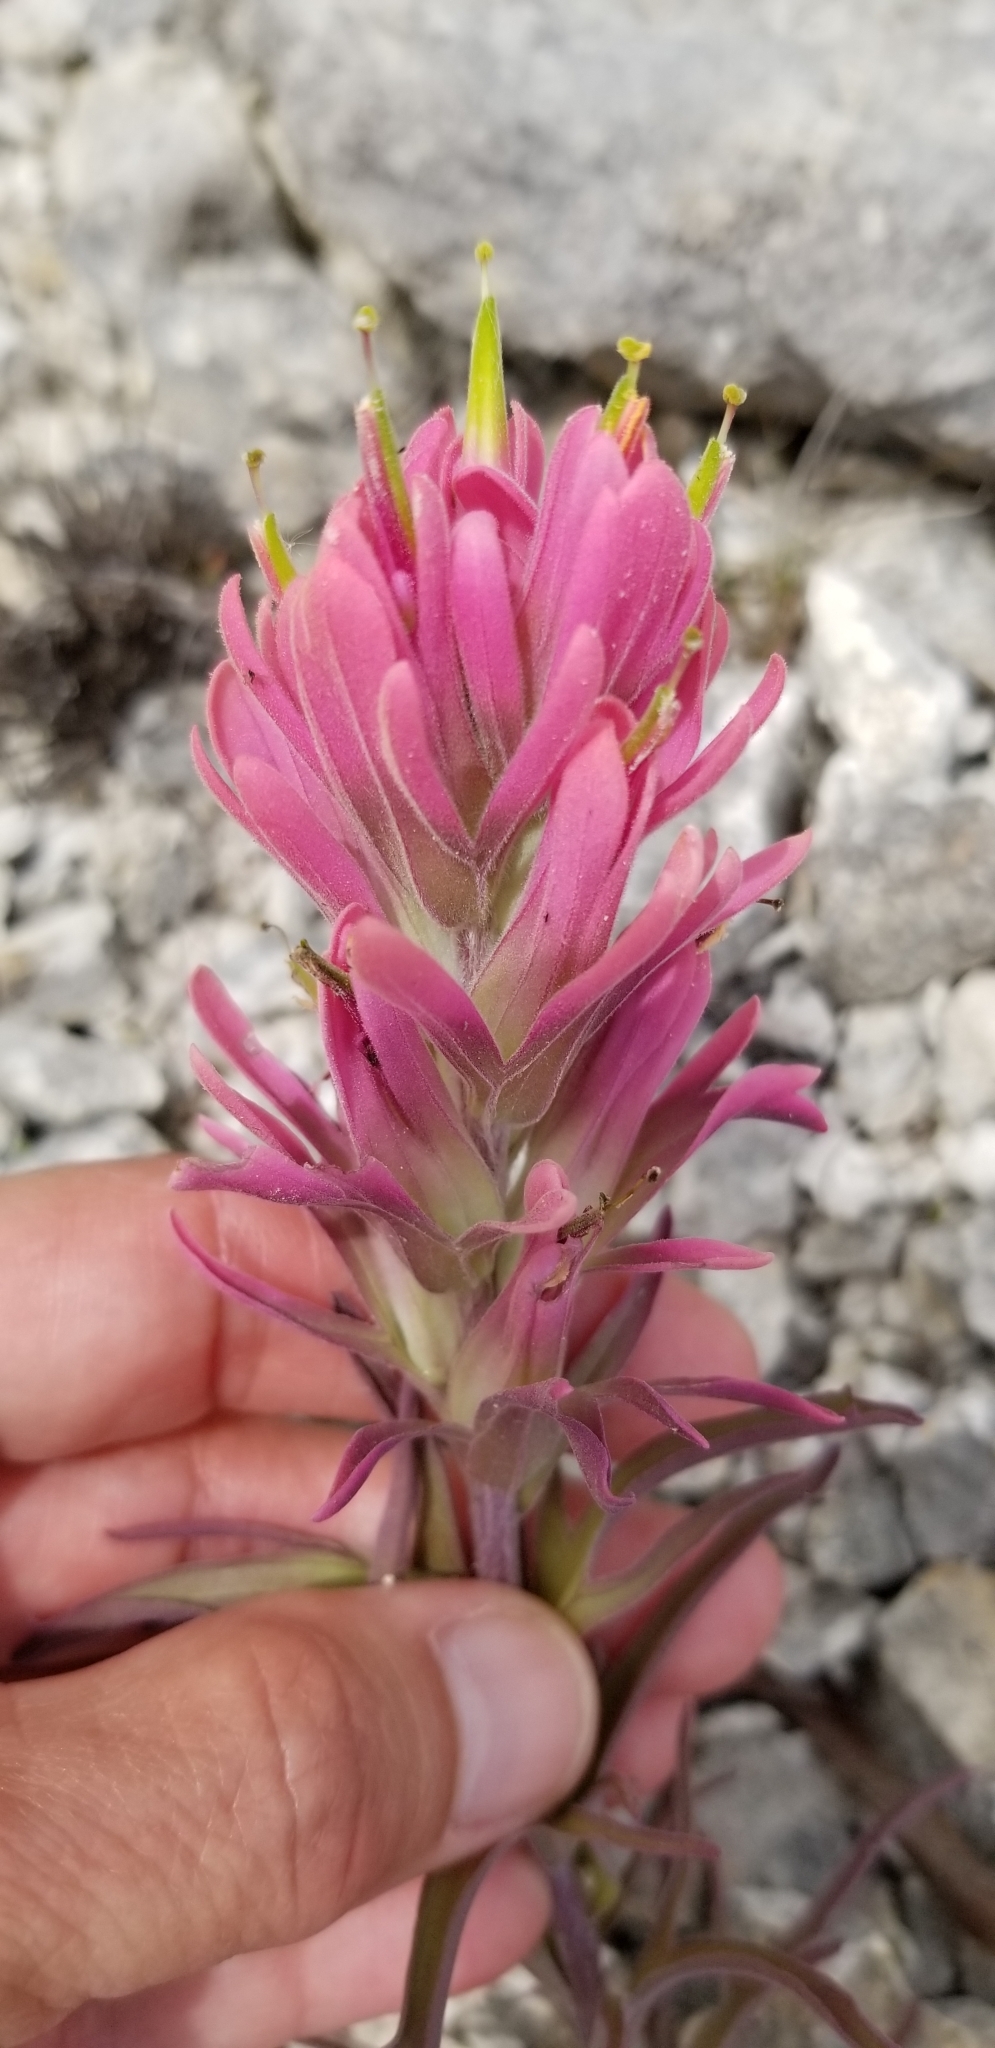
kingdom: Plantae
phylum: Tracheophyta
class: Magnoliopsida
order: Lamiales
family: Orobanchaceae
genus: Castilleja
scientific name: Castilleja purpurea
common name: Plains paintbrush
